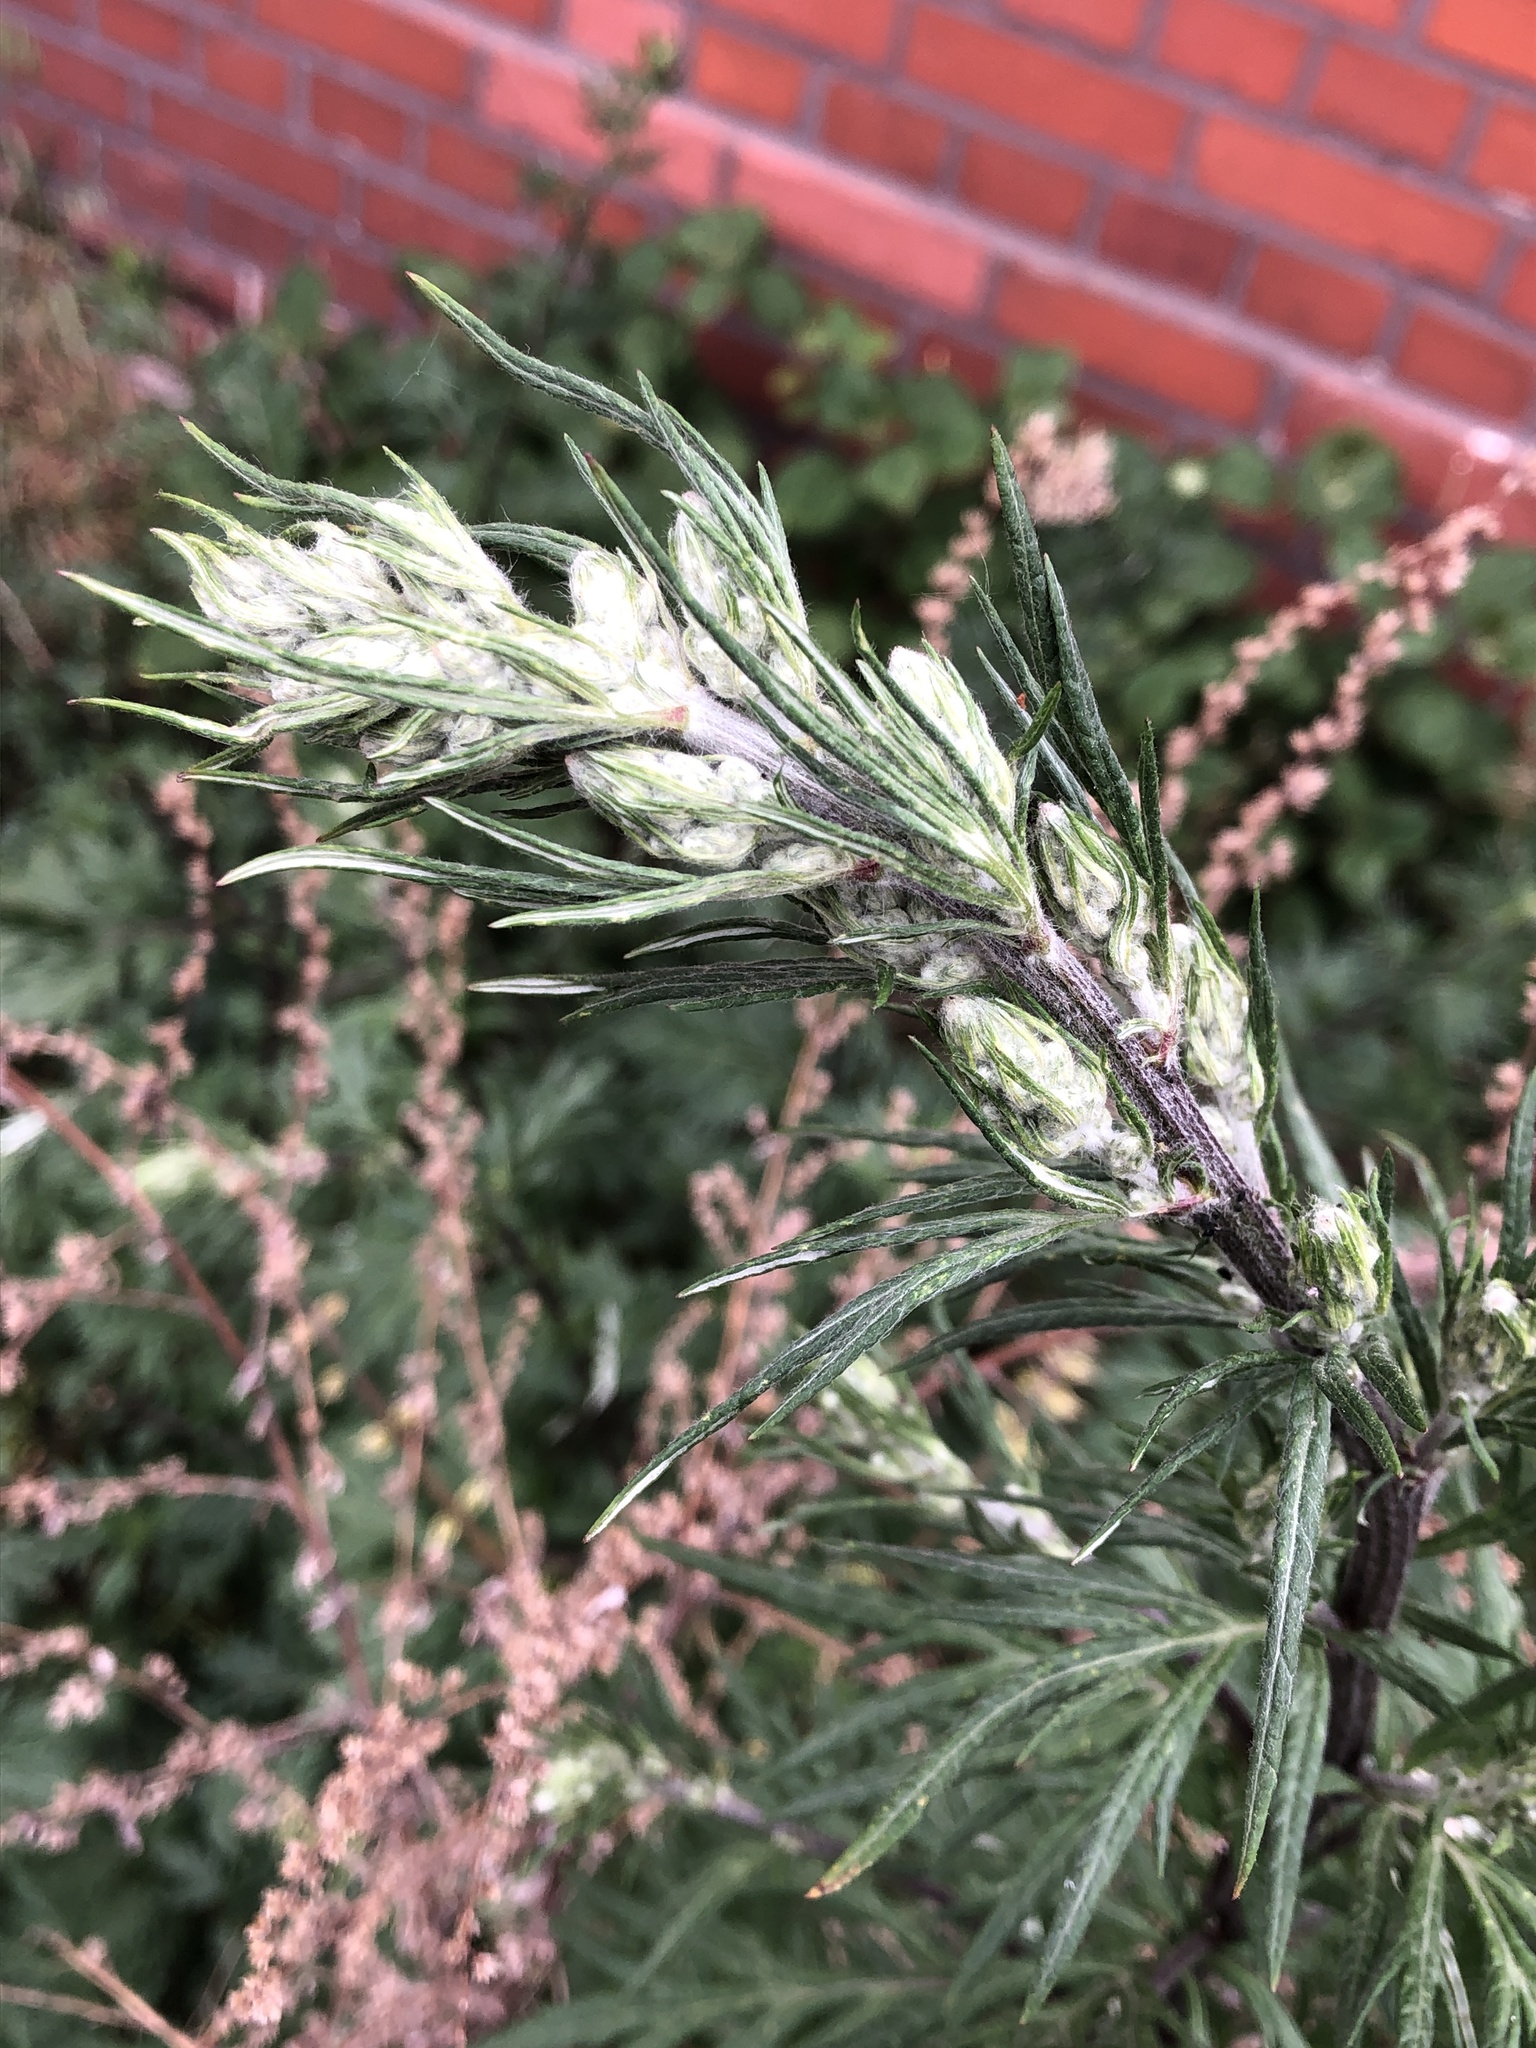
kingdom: Plantae
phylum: Tracheophyta
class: Magnoliopsida
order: Asterales
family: Asteraceae
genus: Artemisia
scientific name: Artemisia vulgaris
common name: Mugwort
